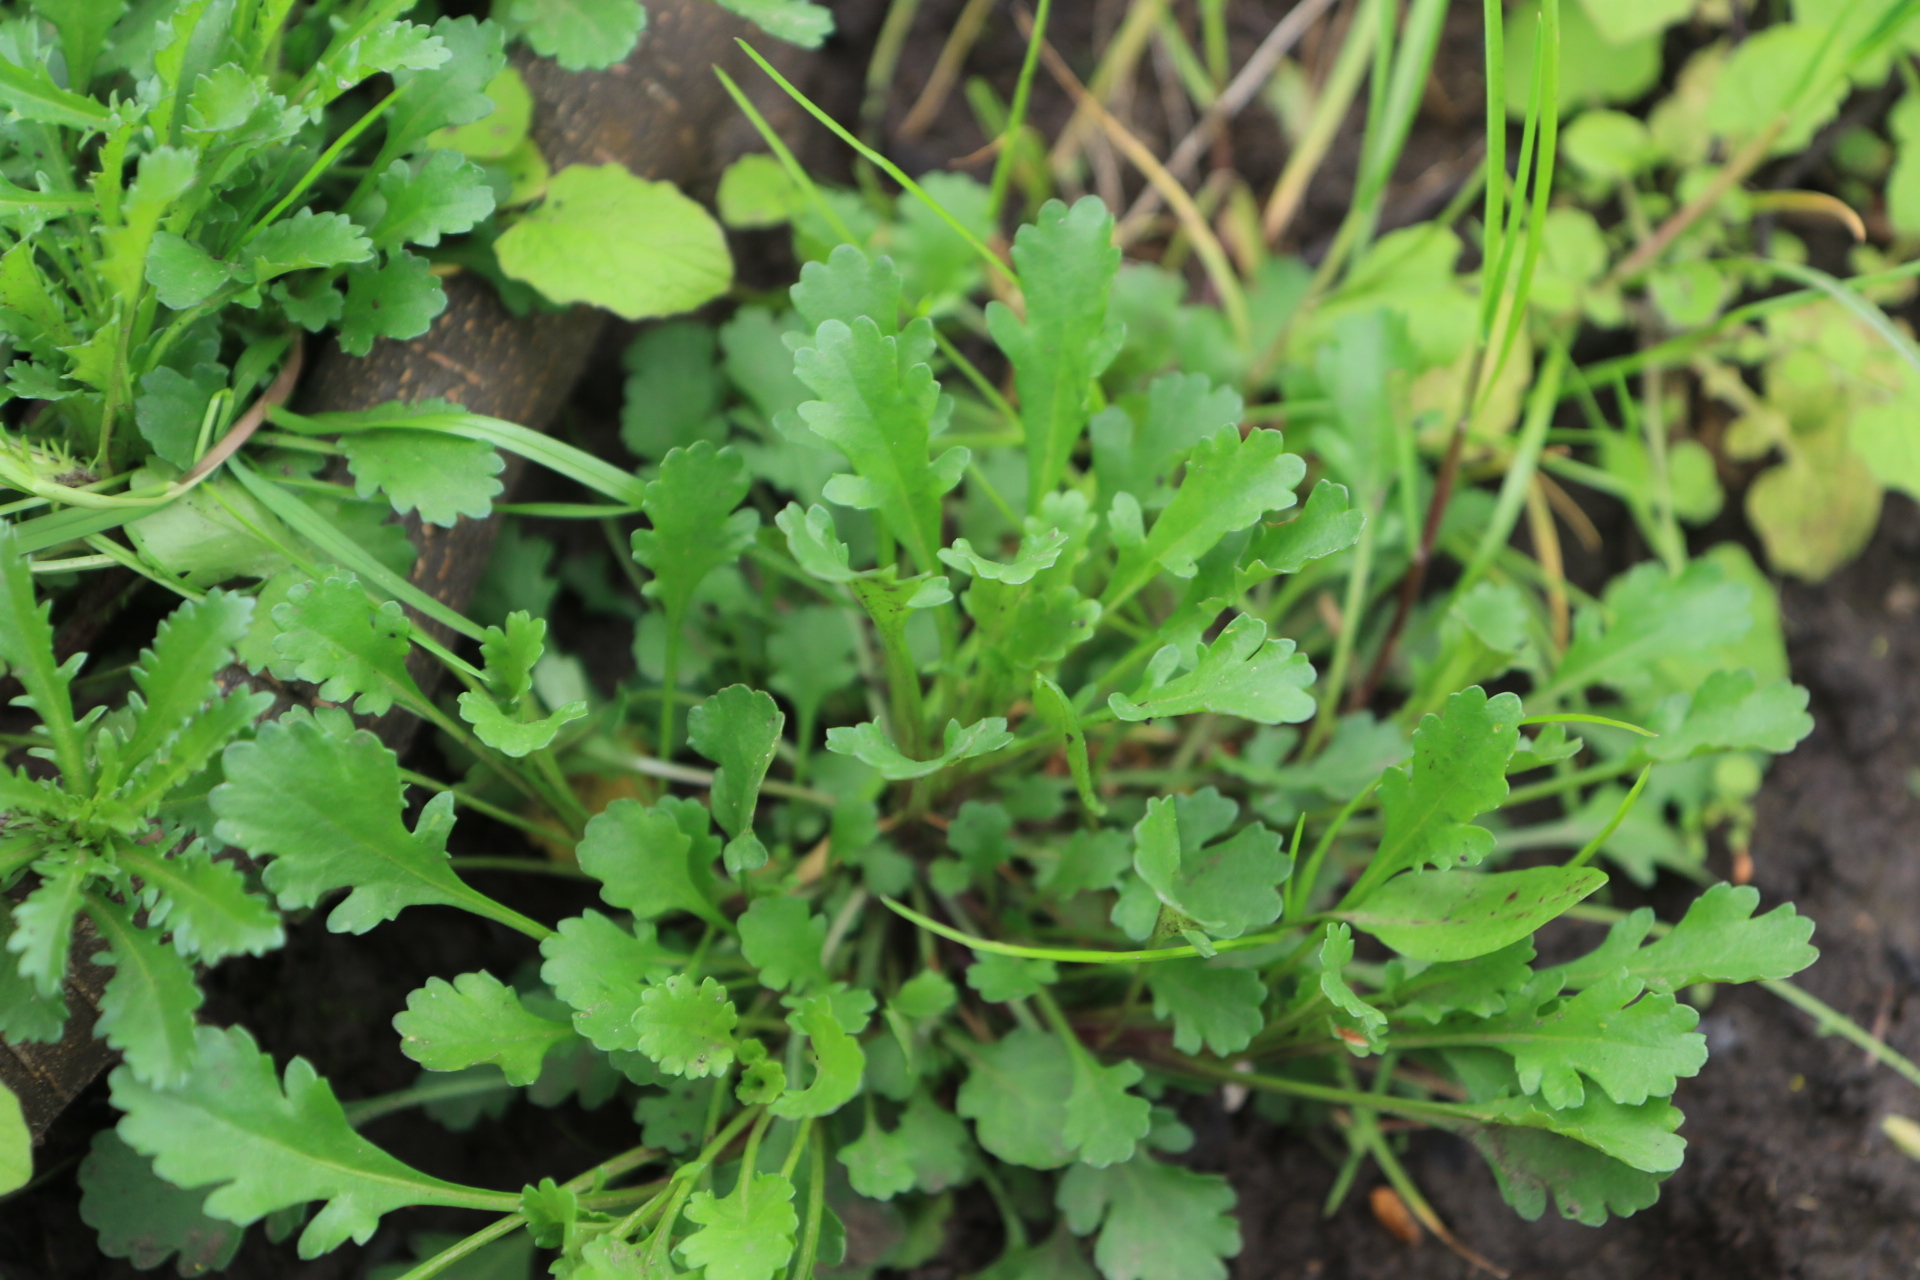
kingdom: Plantae
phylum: Tracheophyta
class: Magnoliopsida
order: Asterales
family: Asteraceae
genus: Leucanthemum
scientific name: Leucanthemum vulgare
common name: Oxeye daisy
